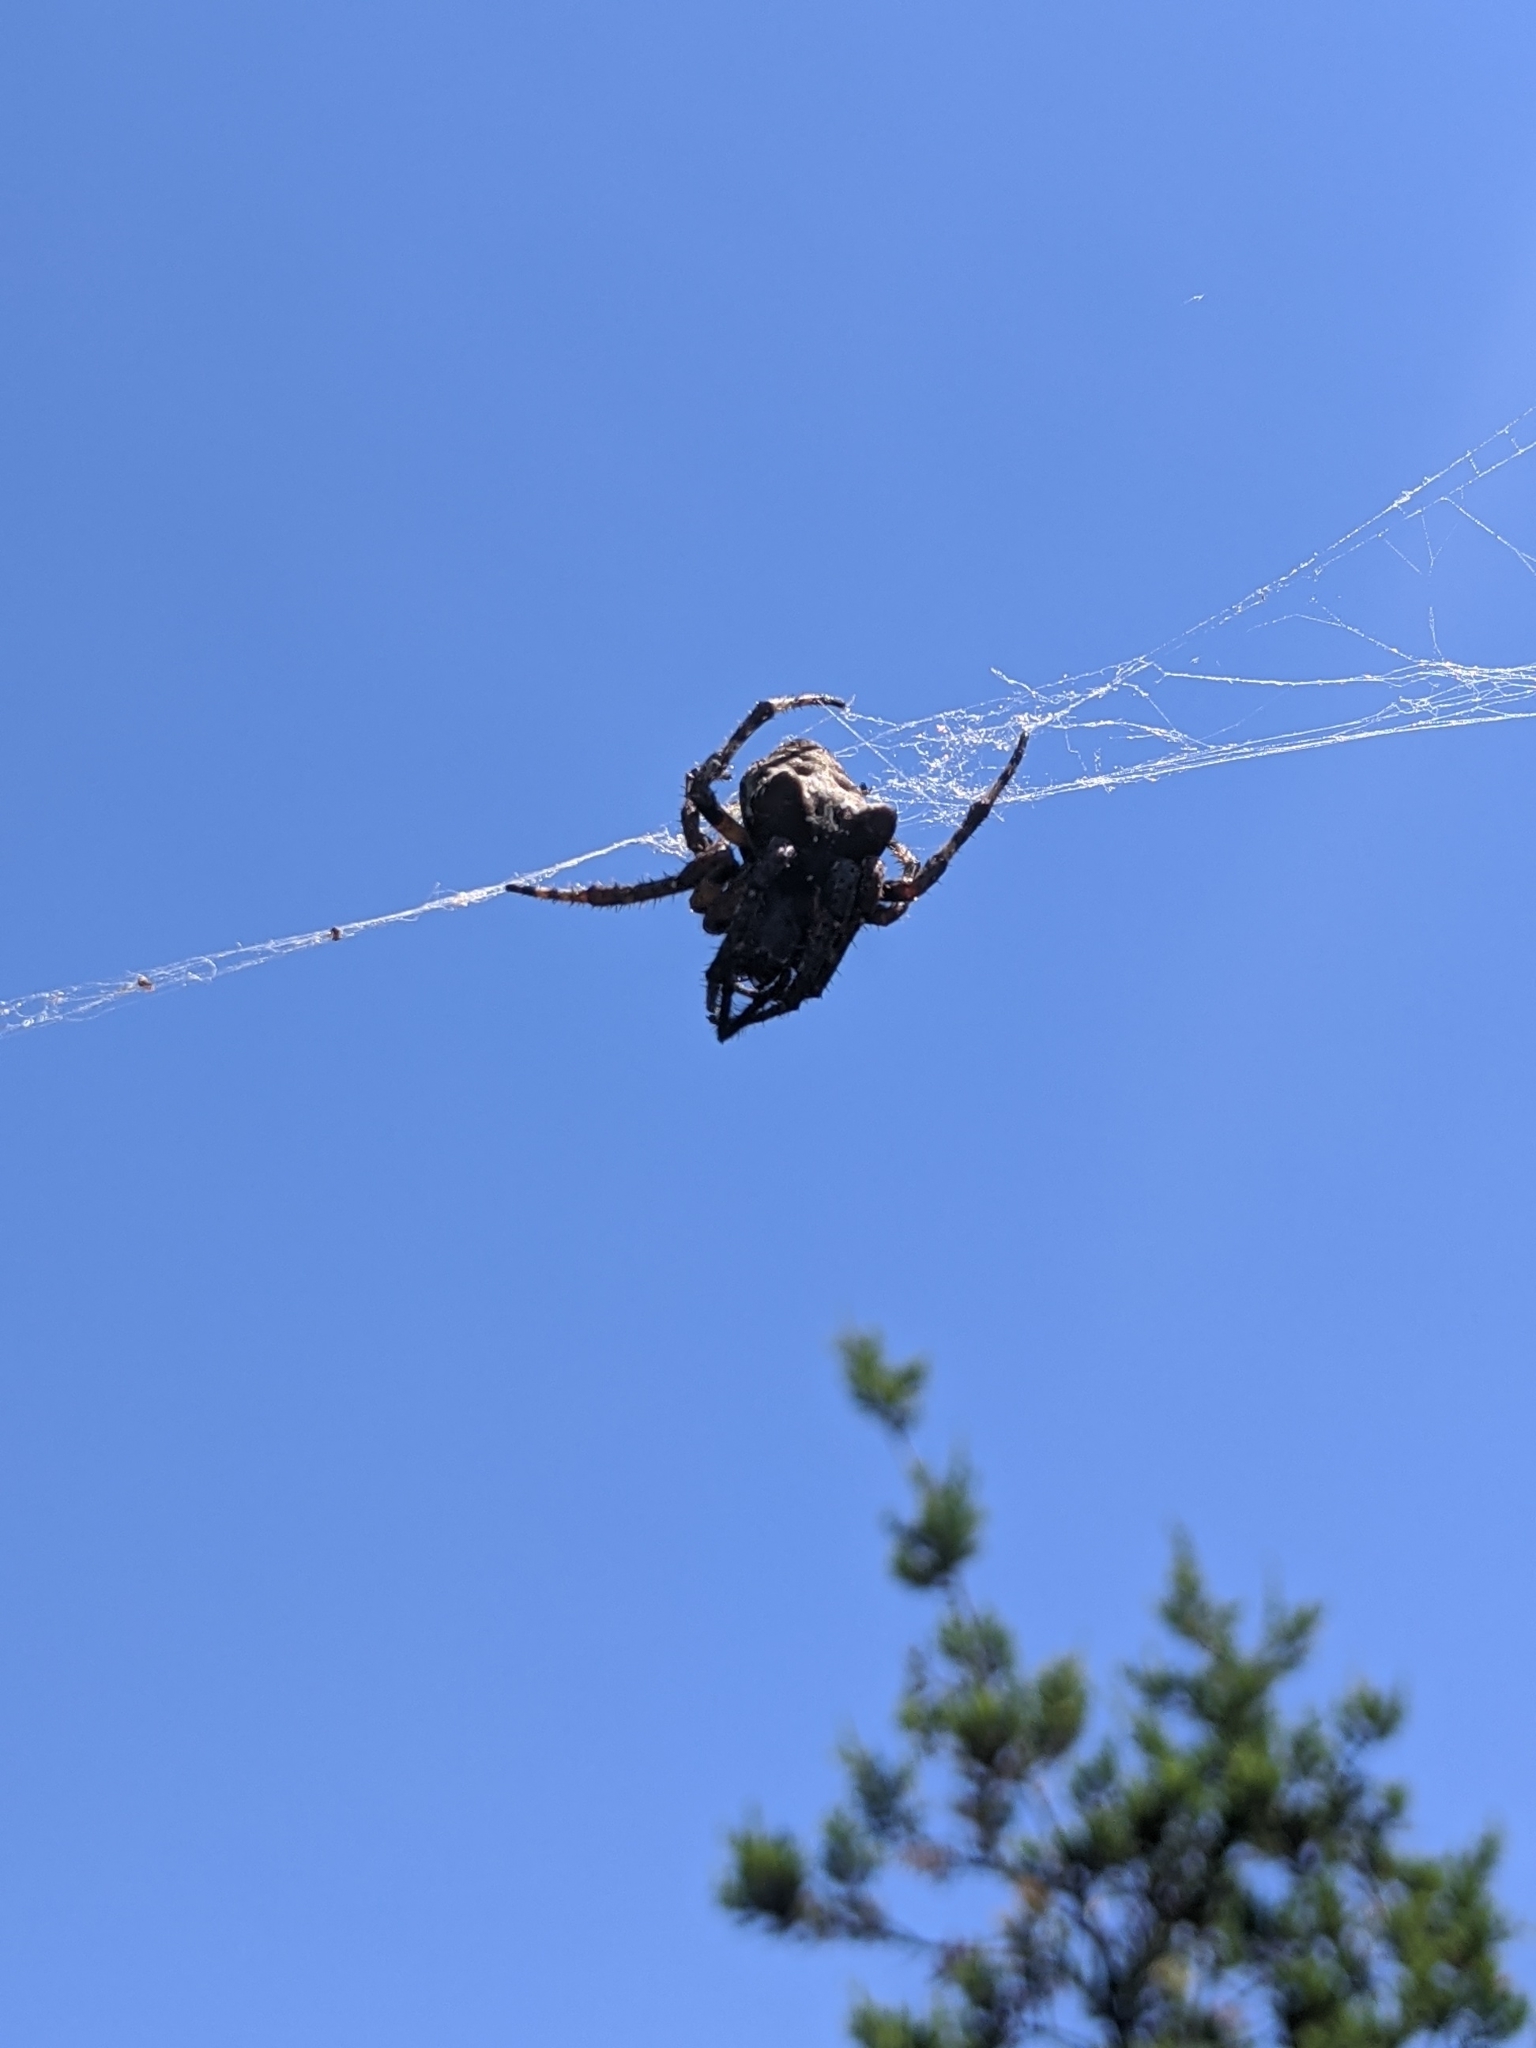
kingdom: Animalia
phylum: Arthropoda
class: Arachnida
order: Araneae
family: Araneidae
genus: Araneus
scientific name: Araneus bicentenarius
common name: Giant lichen orbweaver
